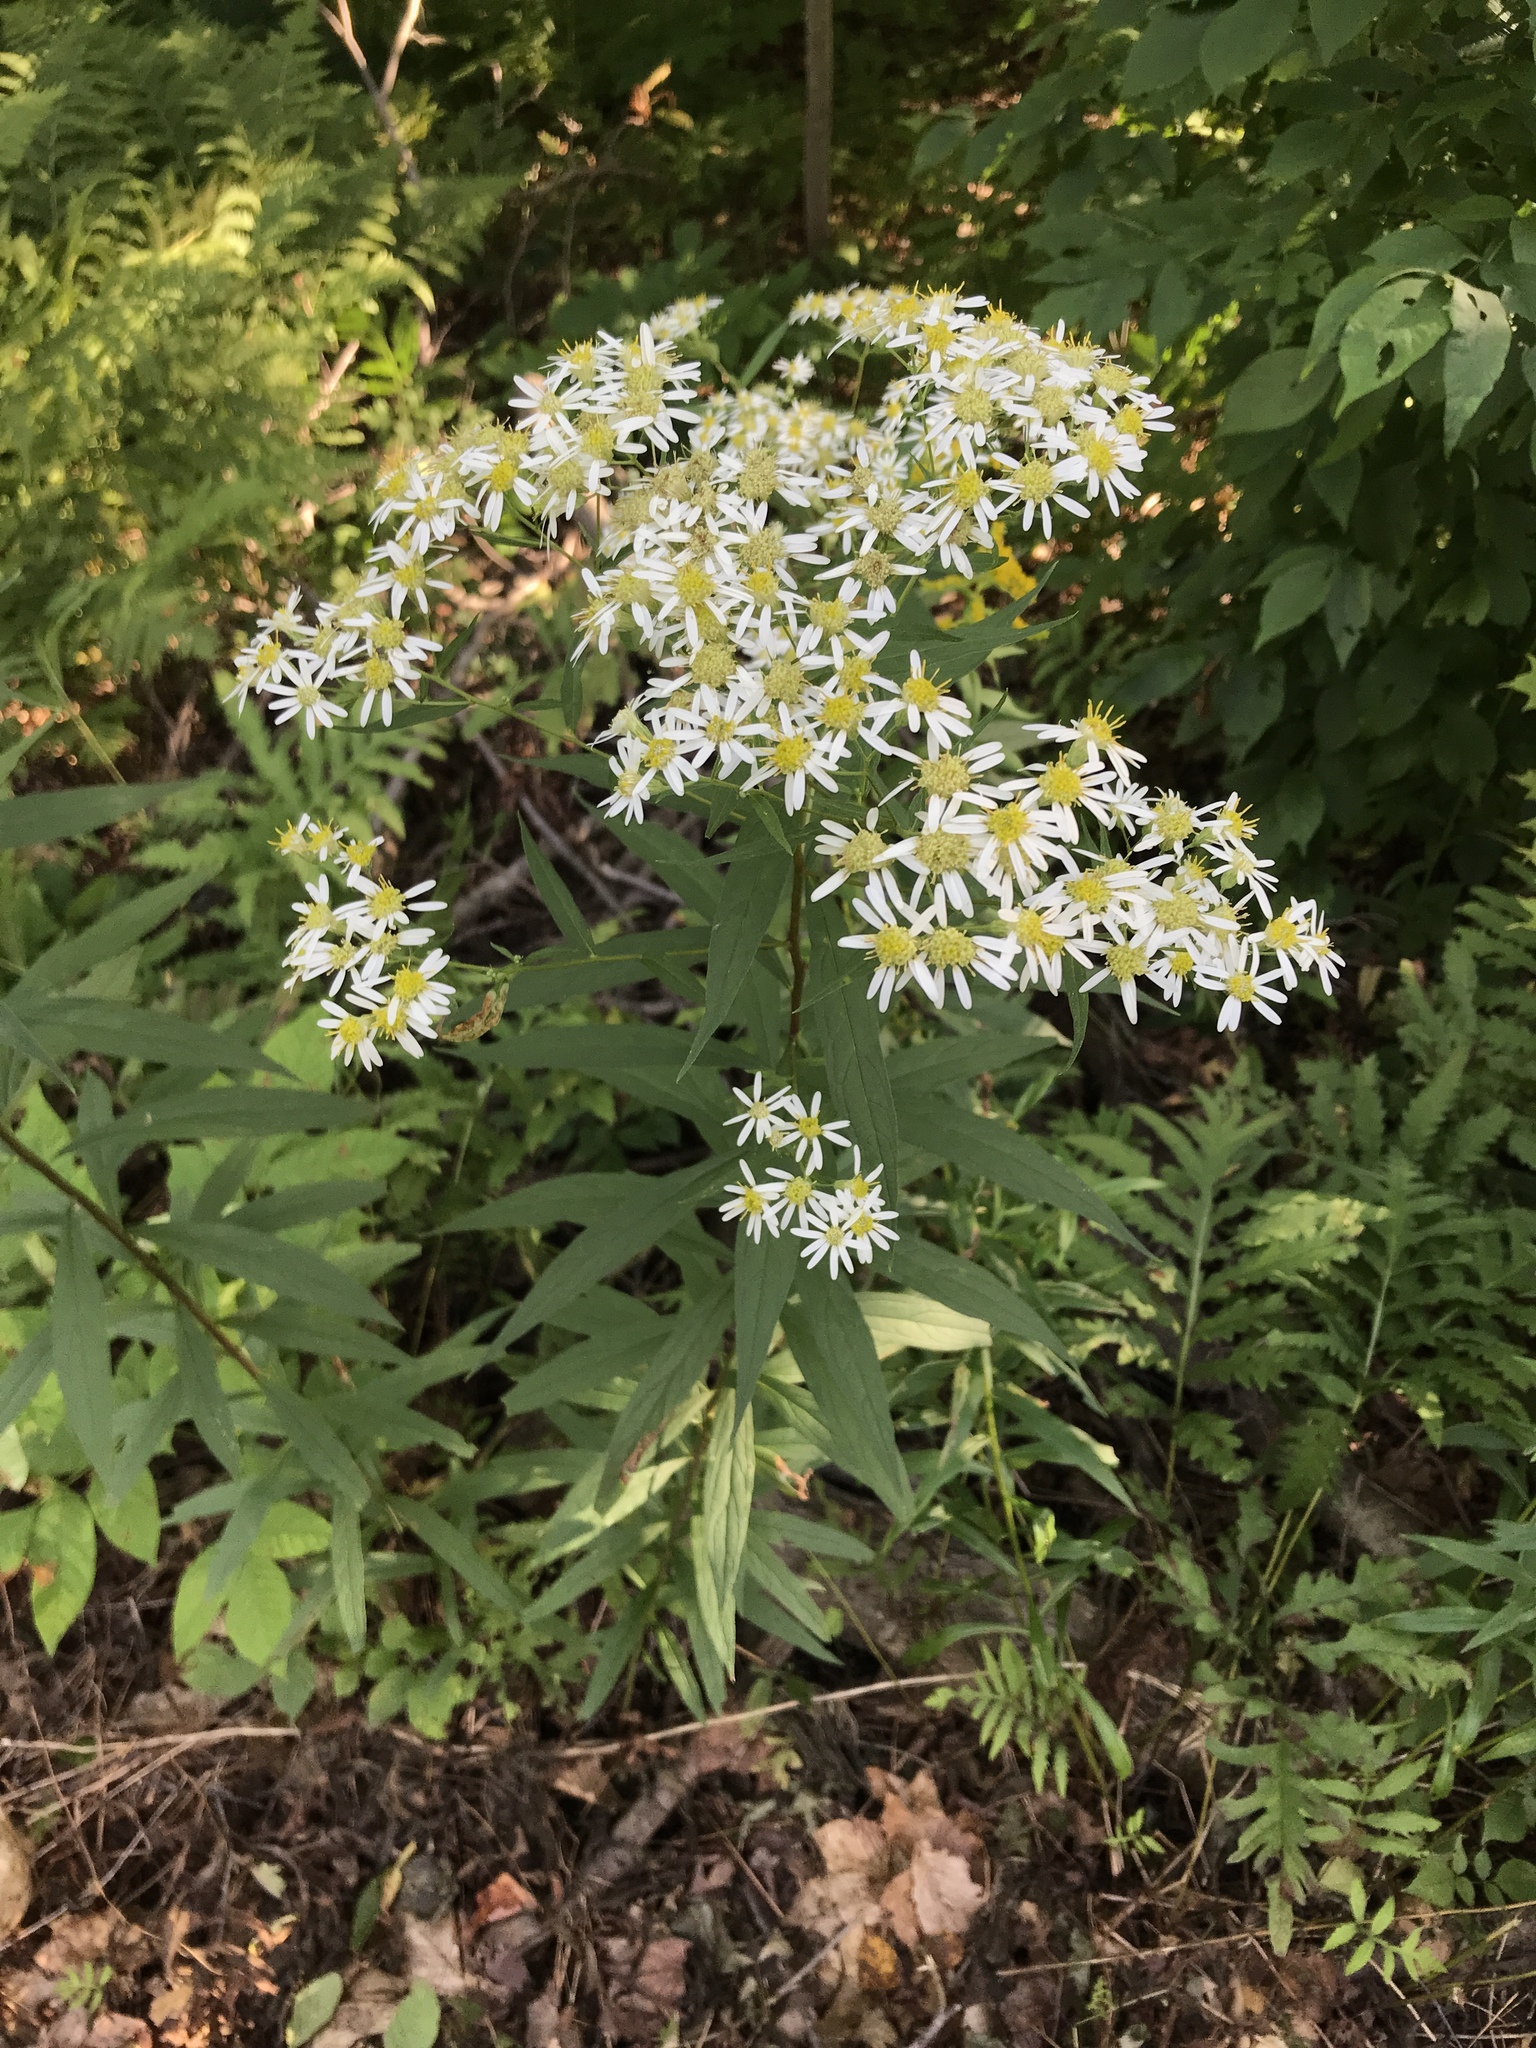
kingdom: Plantae
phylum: Tracheophyta
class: Magnoliopsida
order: Asterales
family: Asteraceae
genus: Doellingeria
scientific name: Doellingeria umbellata
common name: Flat-top white aster
